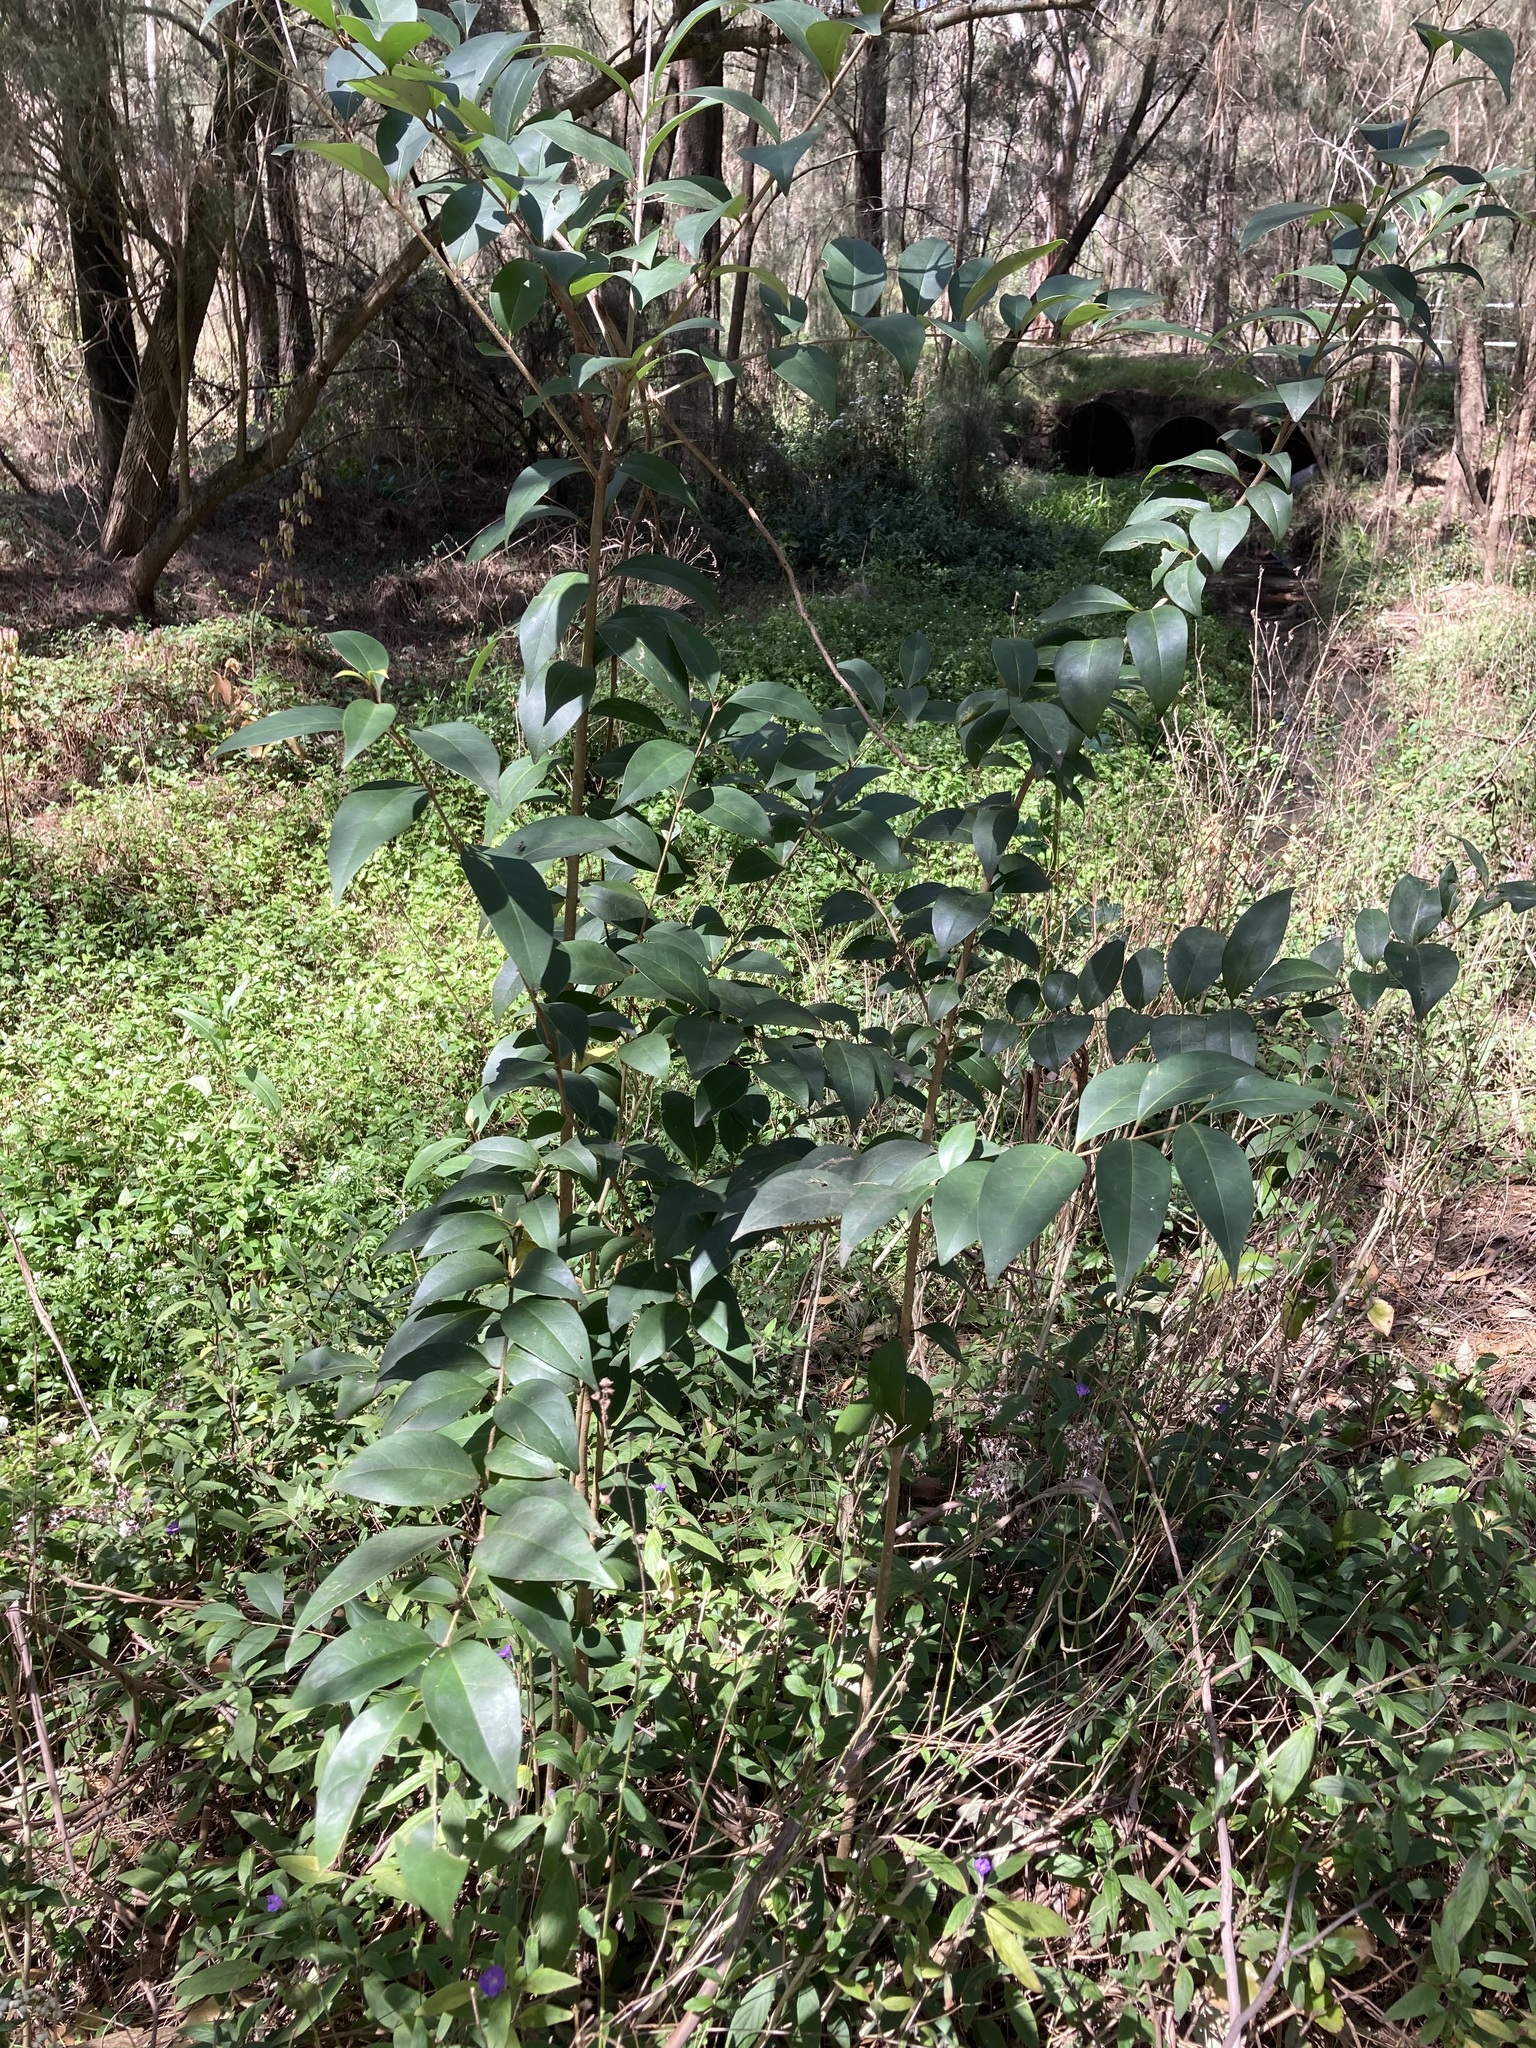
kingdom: Plantae
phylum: Tracheophyta
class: Magnoliopsida
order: Lamiales
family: Oleaceae
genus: Ligustrum
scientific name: Ligustrum lucidum
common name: Glossy privet
